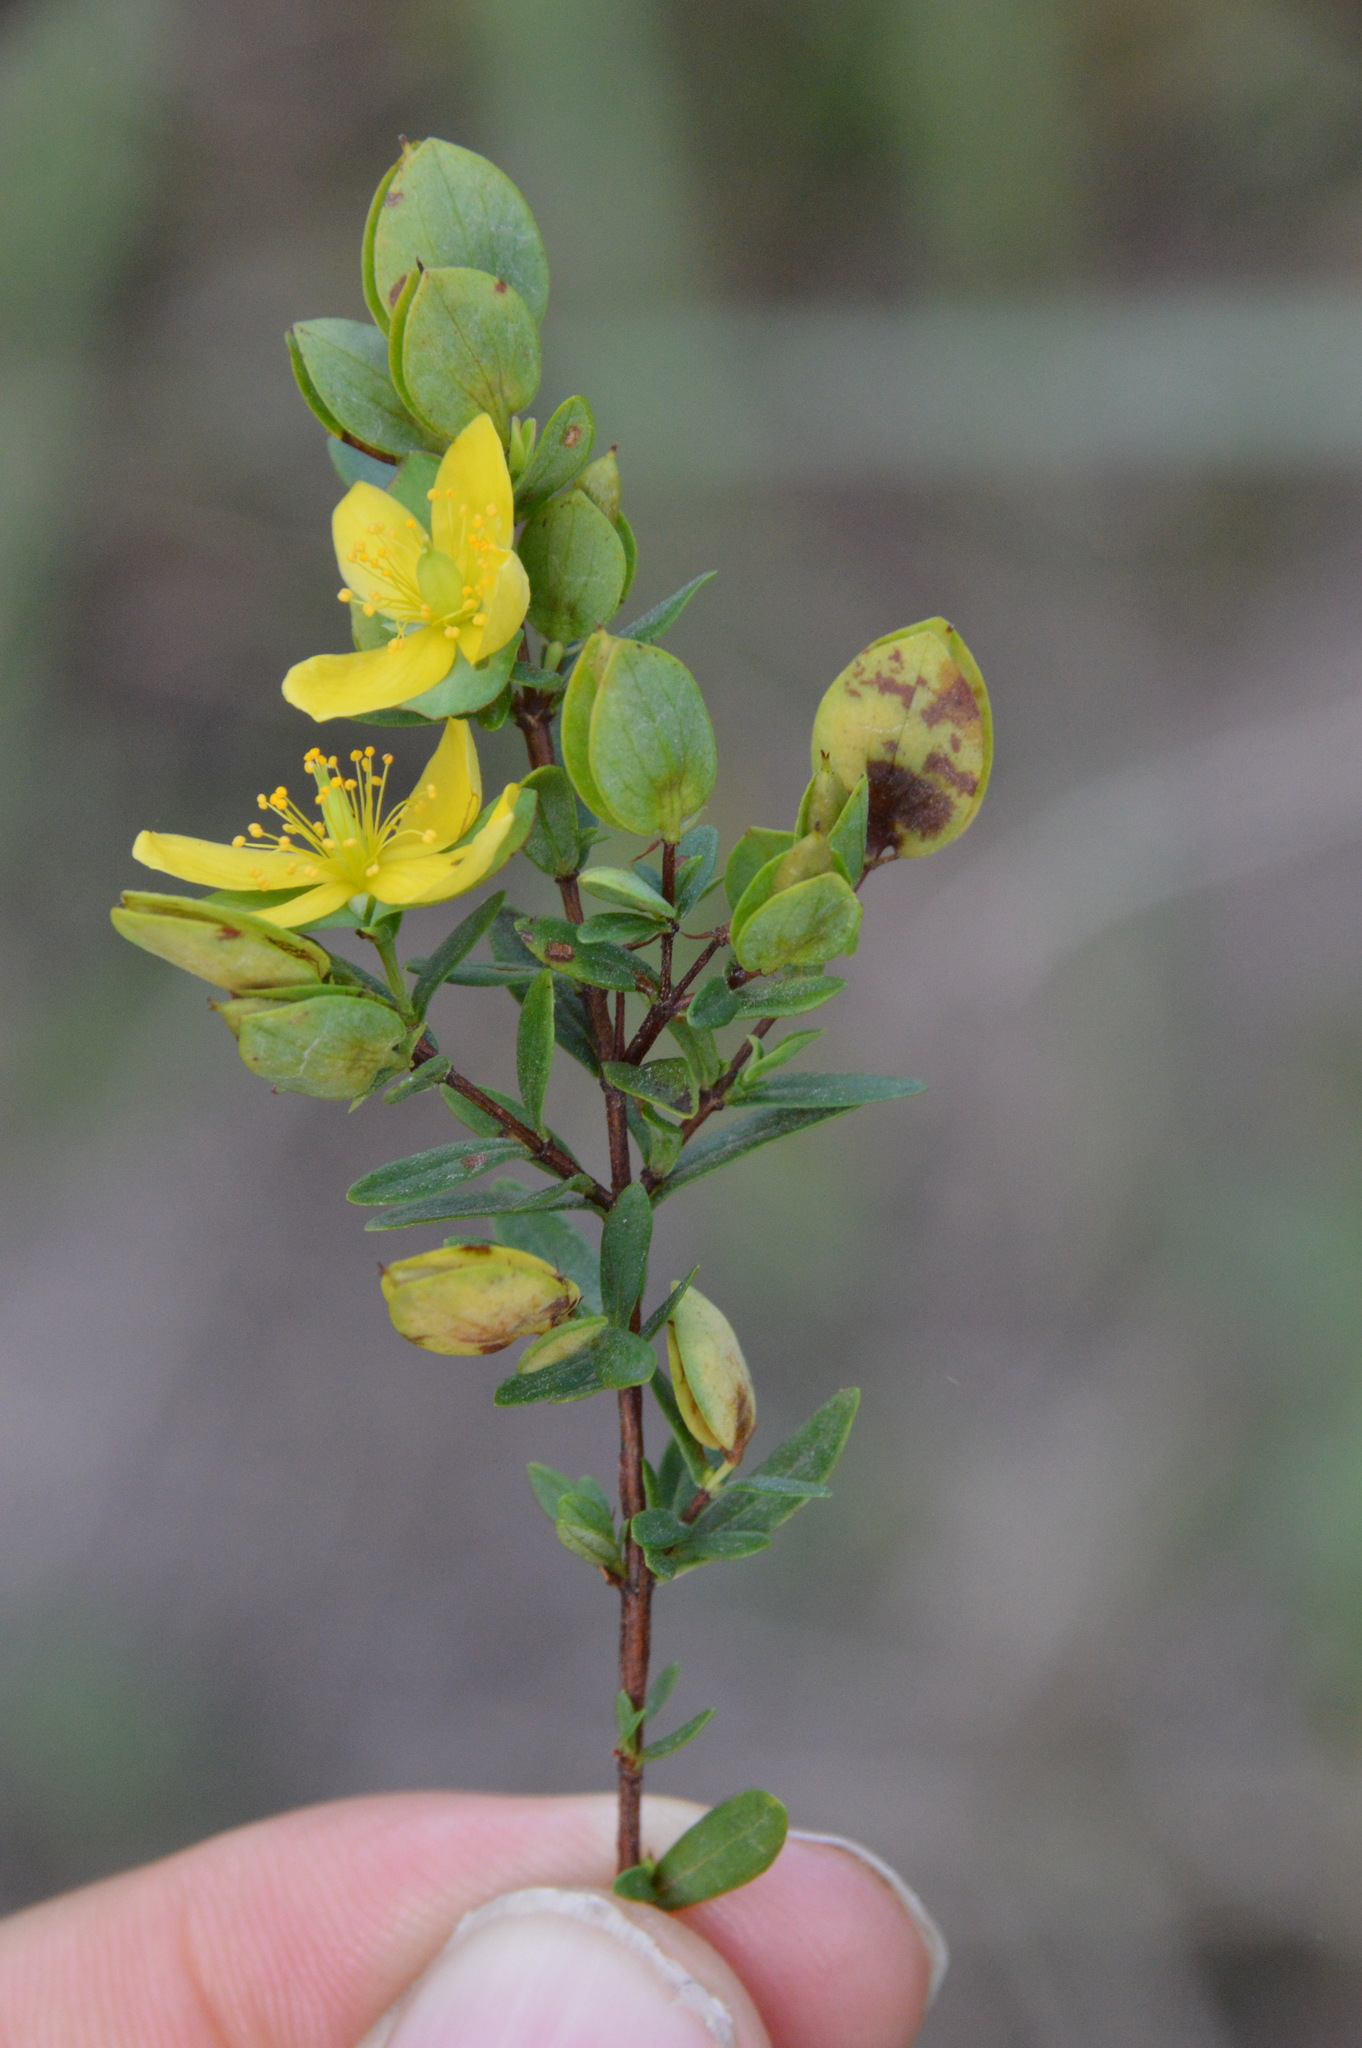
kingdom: Plantae
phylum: Tracheophyta
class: Magnoliopsida
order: Malpighiales
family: Hypericaceae
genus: Hypericum
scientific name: Hypericum hypericoides
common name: St. andrew's cross
